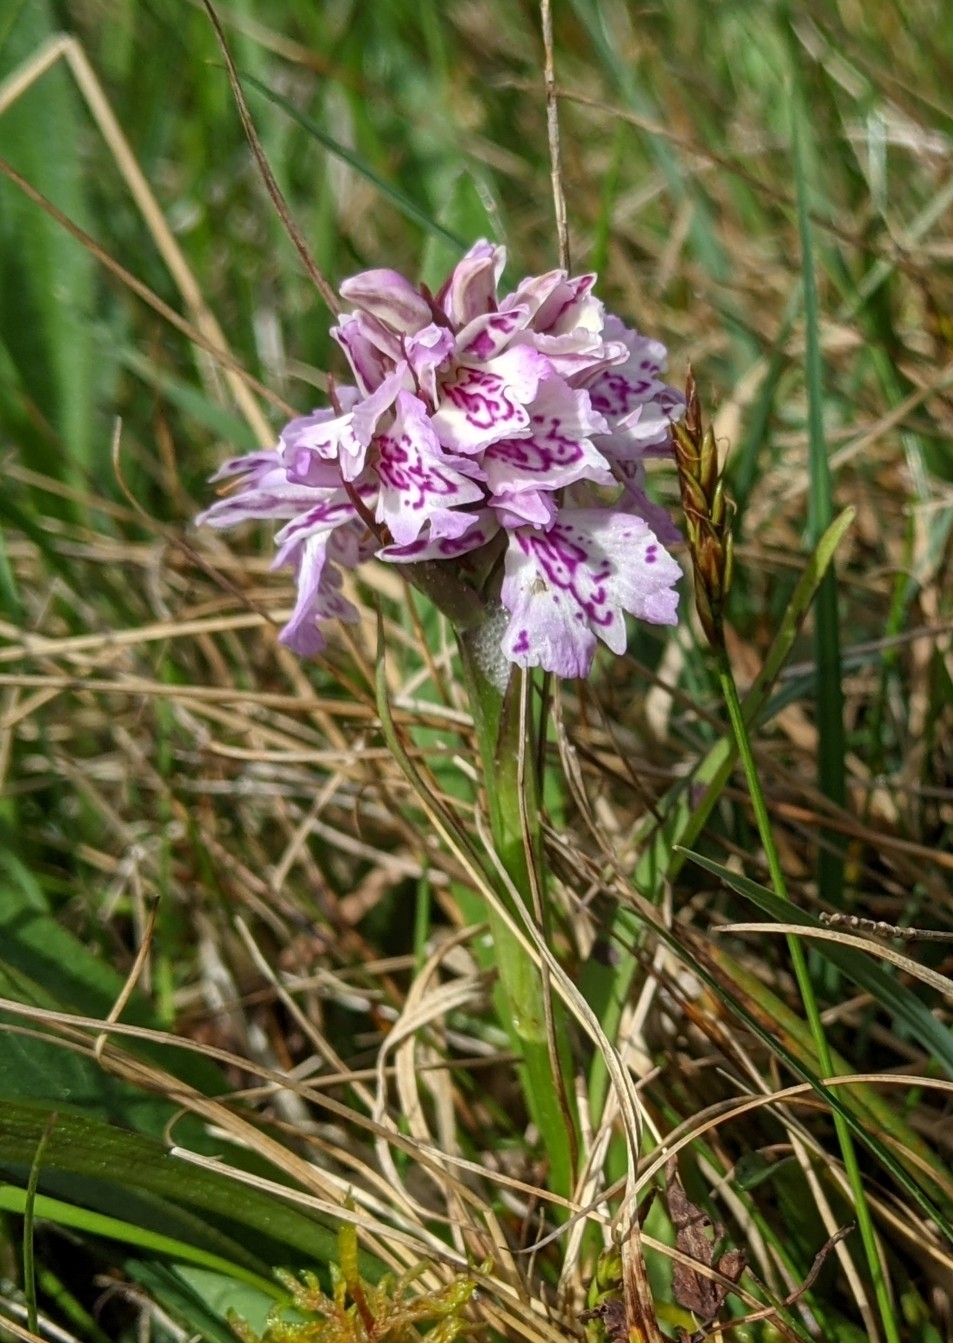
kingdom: Plantae
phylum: Tracheophyta
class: Liliopsida
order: Asparagales
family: Orchidaceae
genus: Dactylorhiza
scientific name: Dactylorhiza maculata
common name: Heath spotted-orchid
